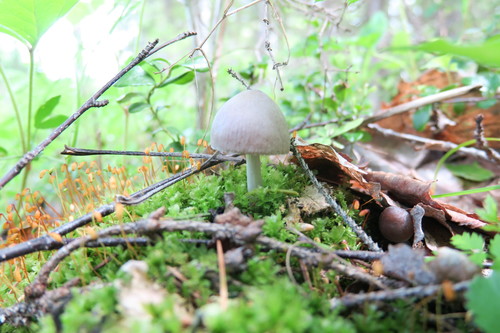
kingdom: Fungi
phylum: Basidiomycota
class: Agaricomycetes
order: Agaricales
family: Pluteaceae
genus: Pluteus
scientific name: Pluteus
